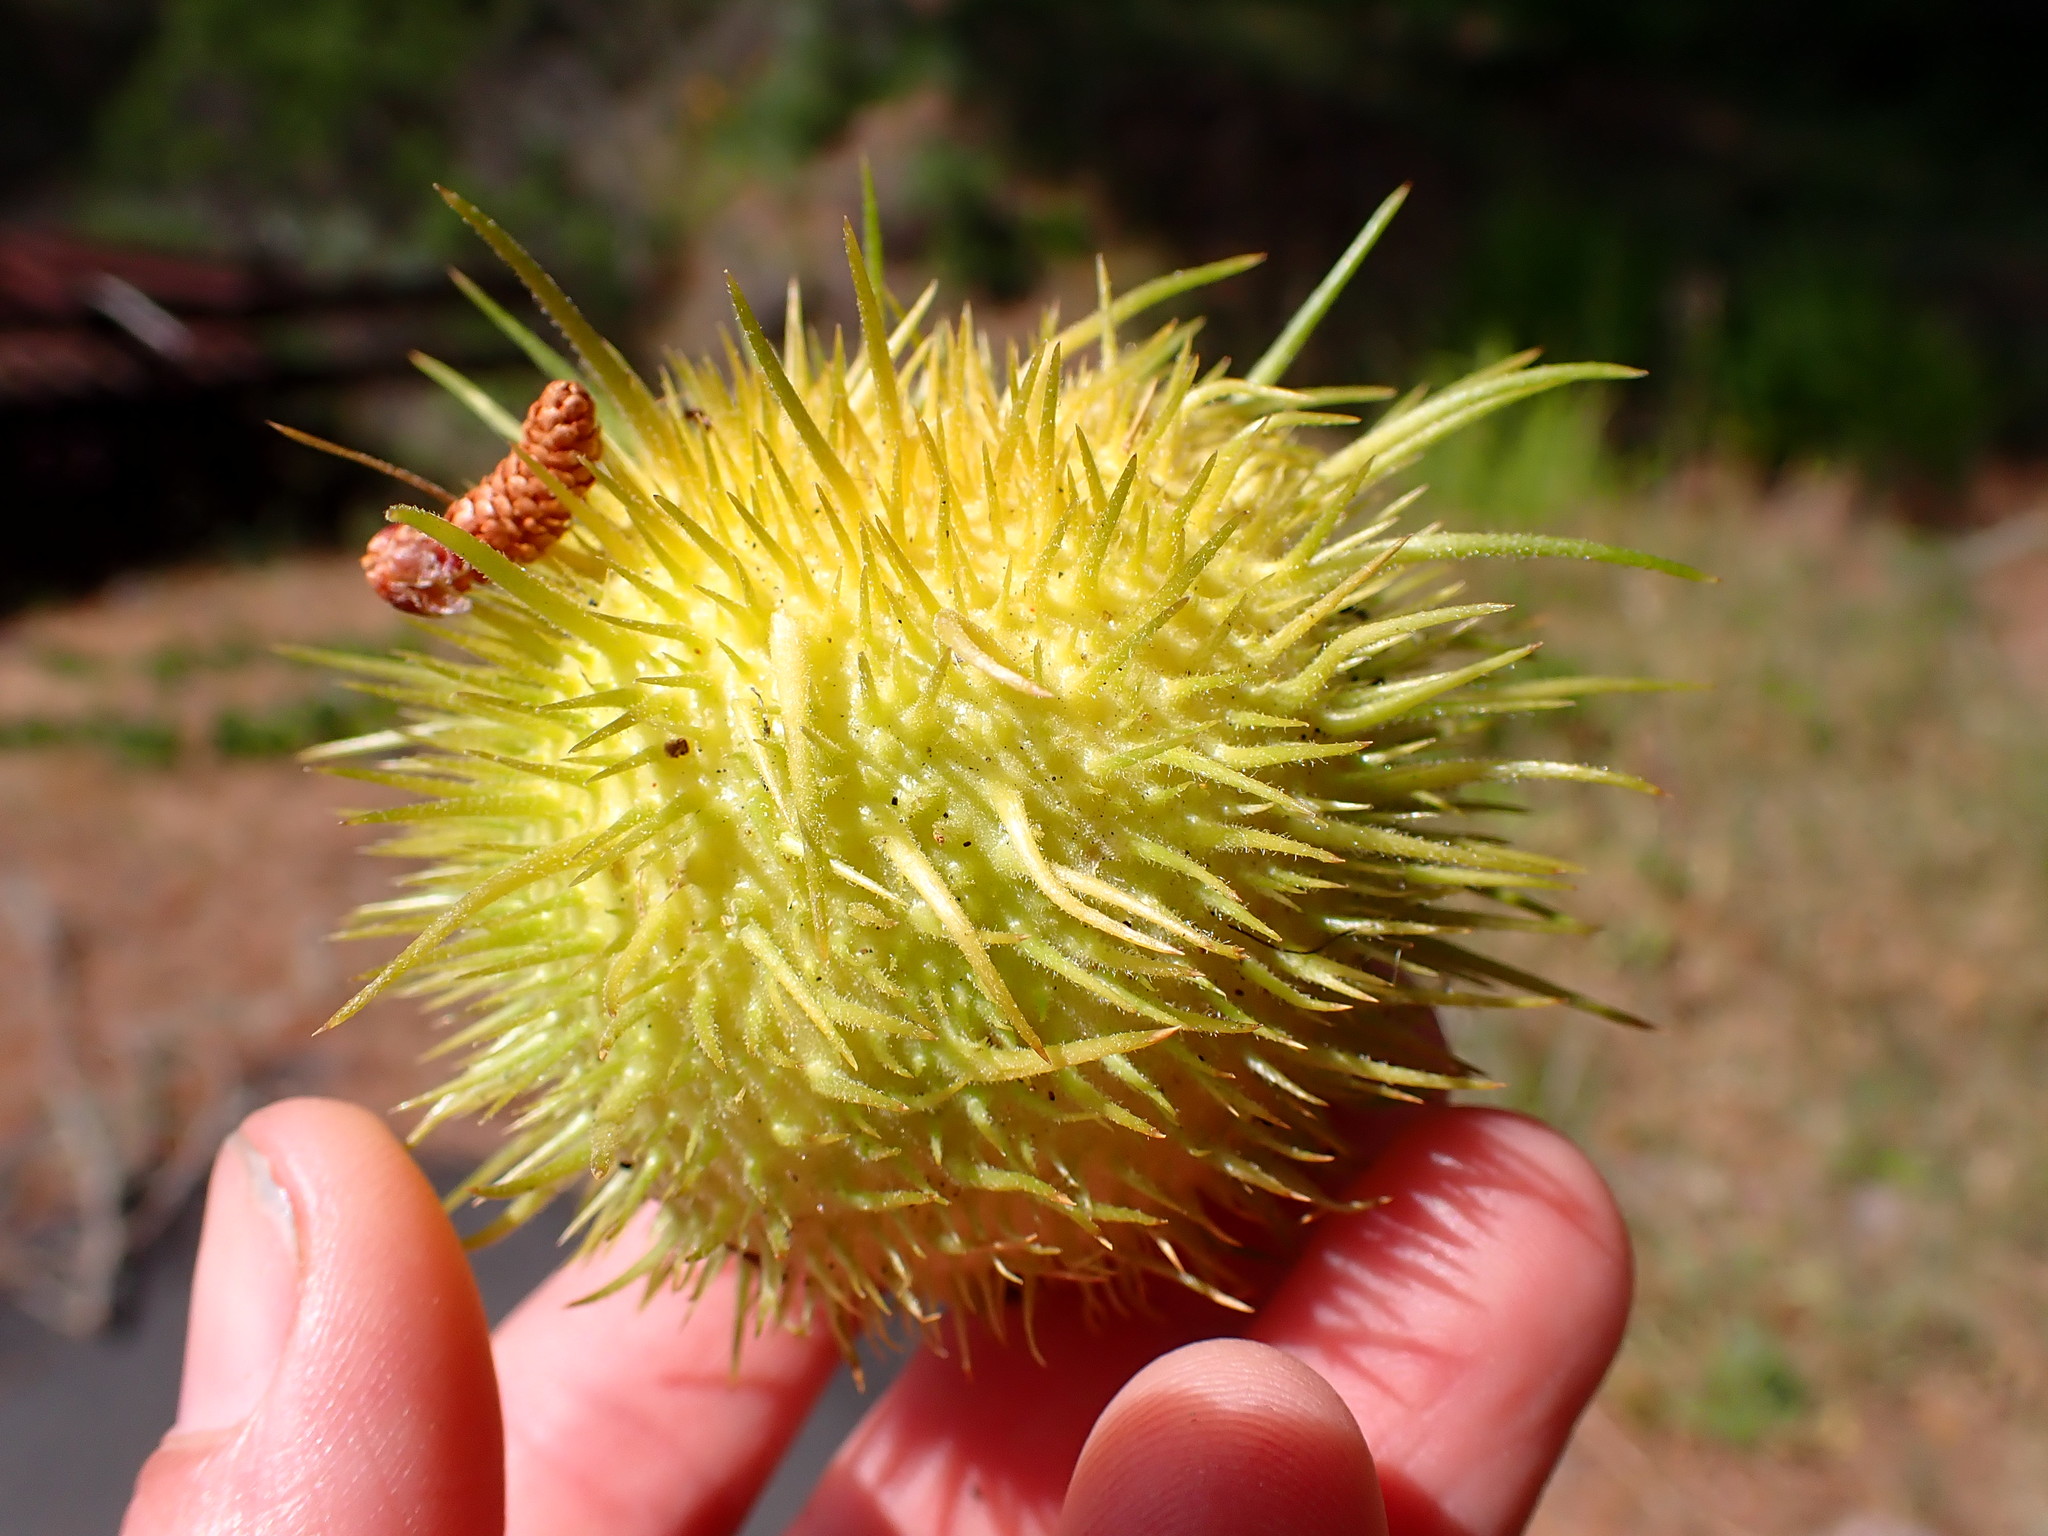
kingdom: Plantae
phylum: Tracheophyta
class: Magnoliopsida
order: Cucurbitales
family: Cucurbitaceae
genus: Marah
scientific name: Marah fabacea
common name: California manroot
